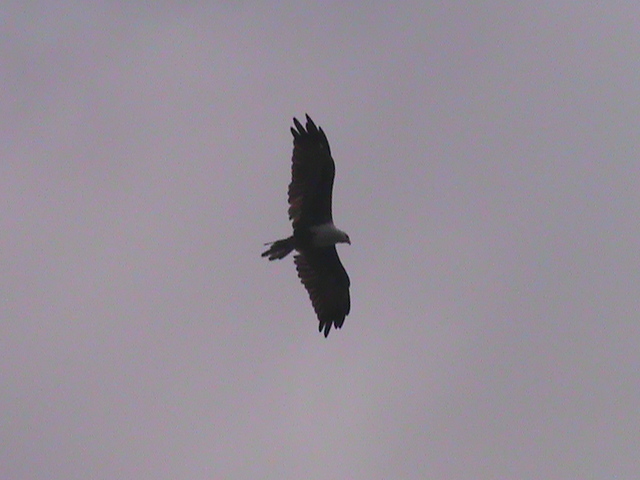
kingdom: Animalia
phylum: Chordata
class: Aves
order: Accipitriformes
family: Accipitridae
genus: Haliastur
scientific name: Haliastur indus
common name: Brahminy kite
